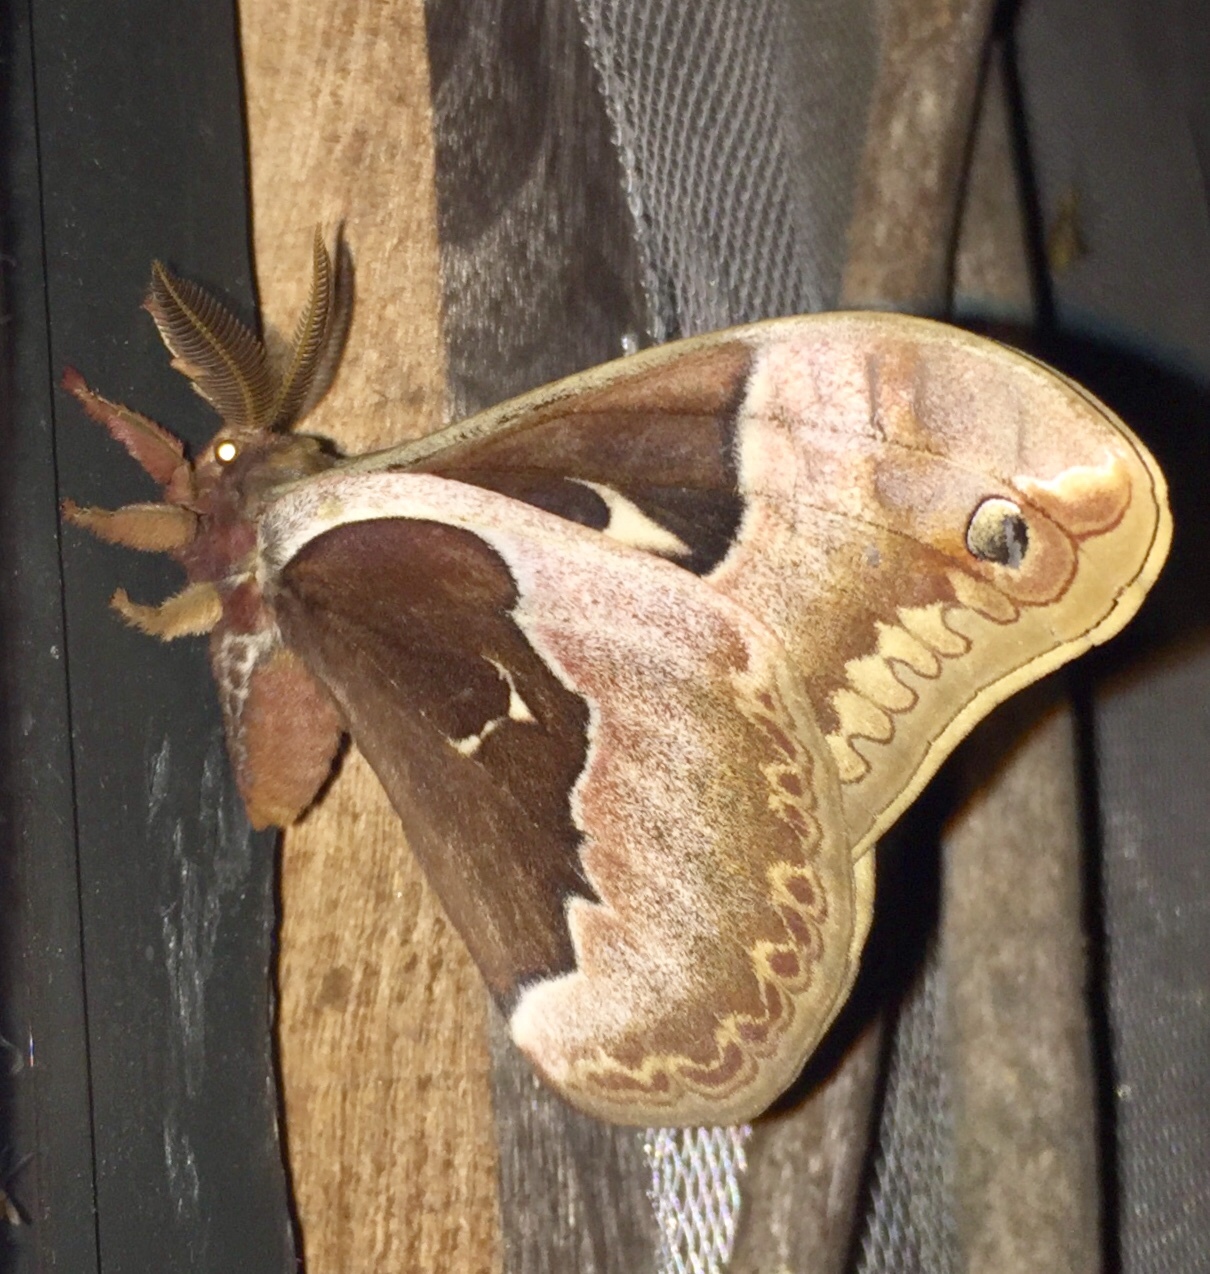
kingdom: Animalia
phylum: Arthropoda
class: Insecta
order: Lepidoptera
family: Saturniidae
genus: Callosamia
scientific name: Callosamia angulifera
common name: Tulip tree silkmoth
